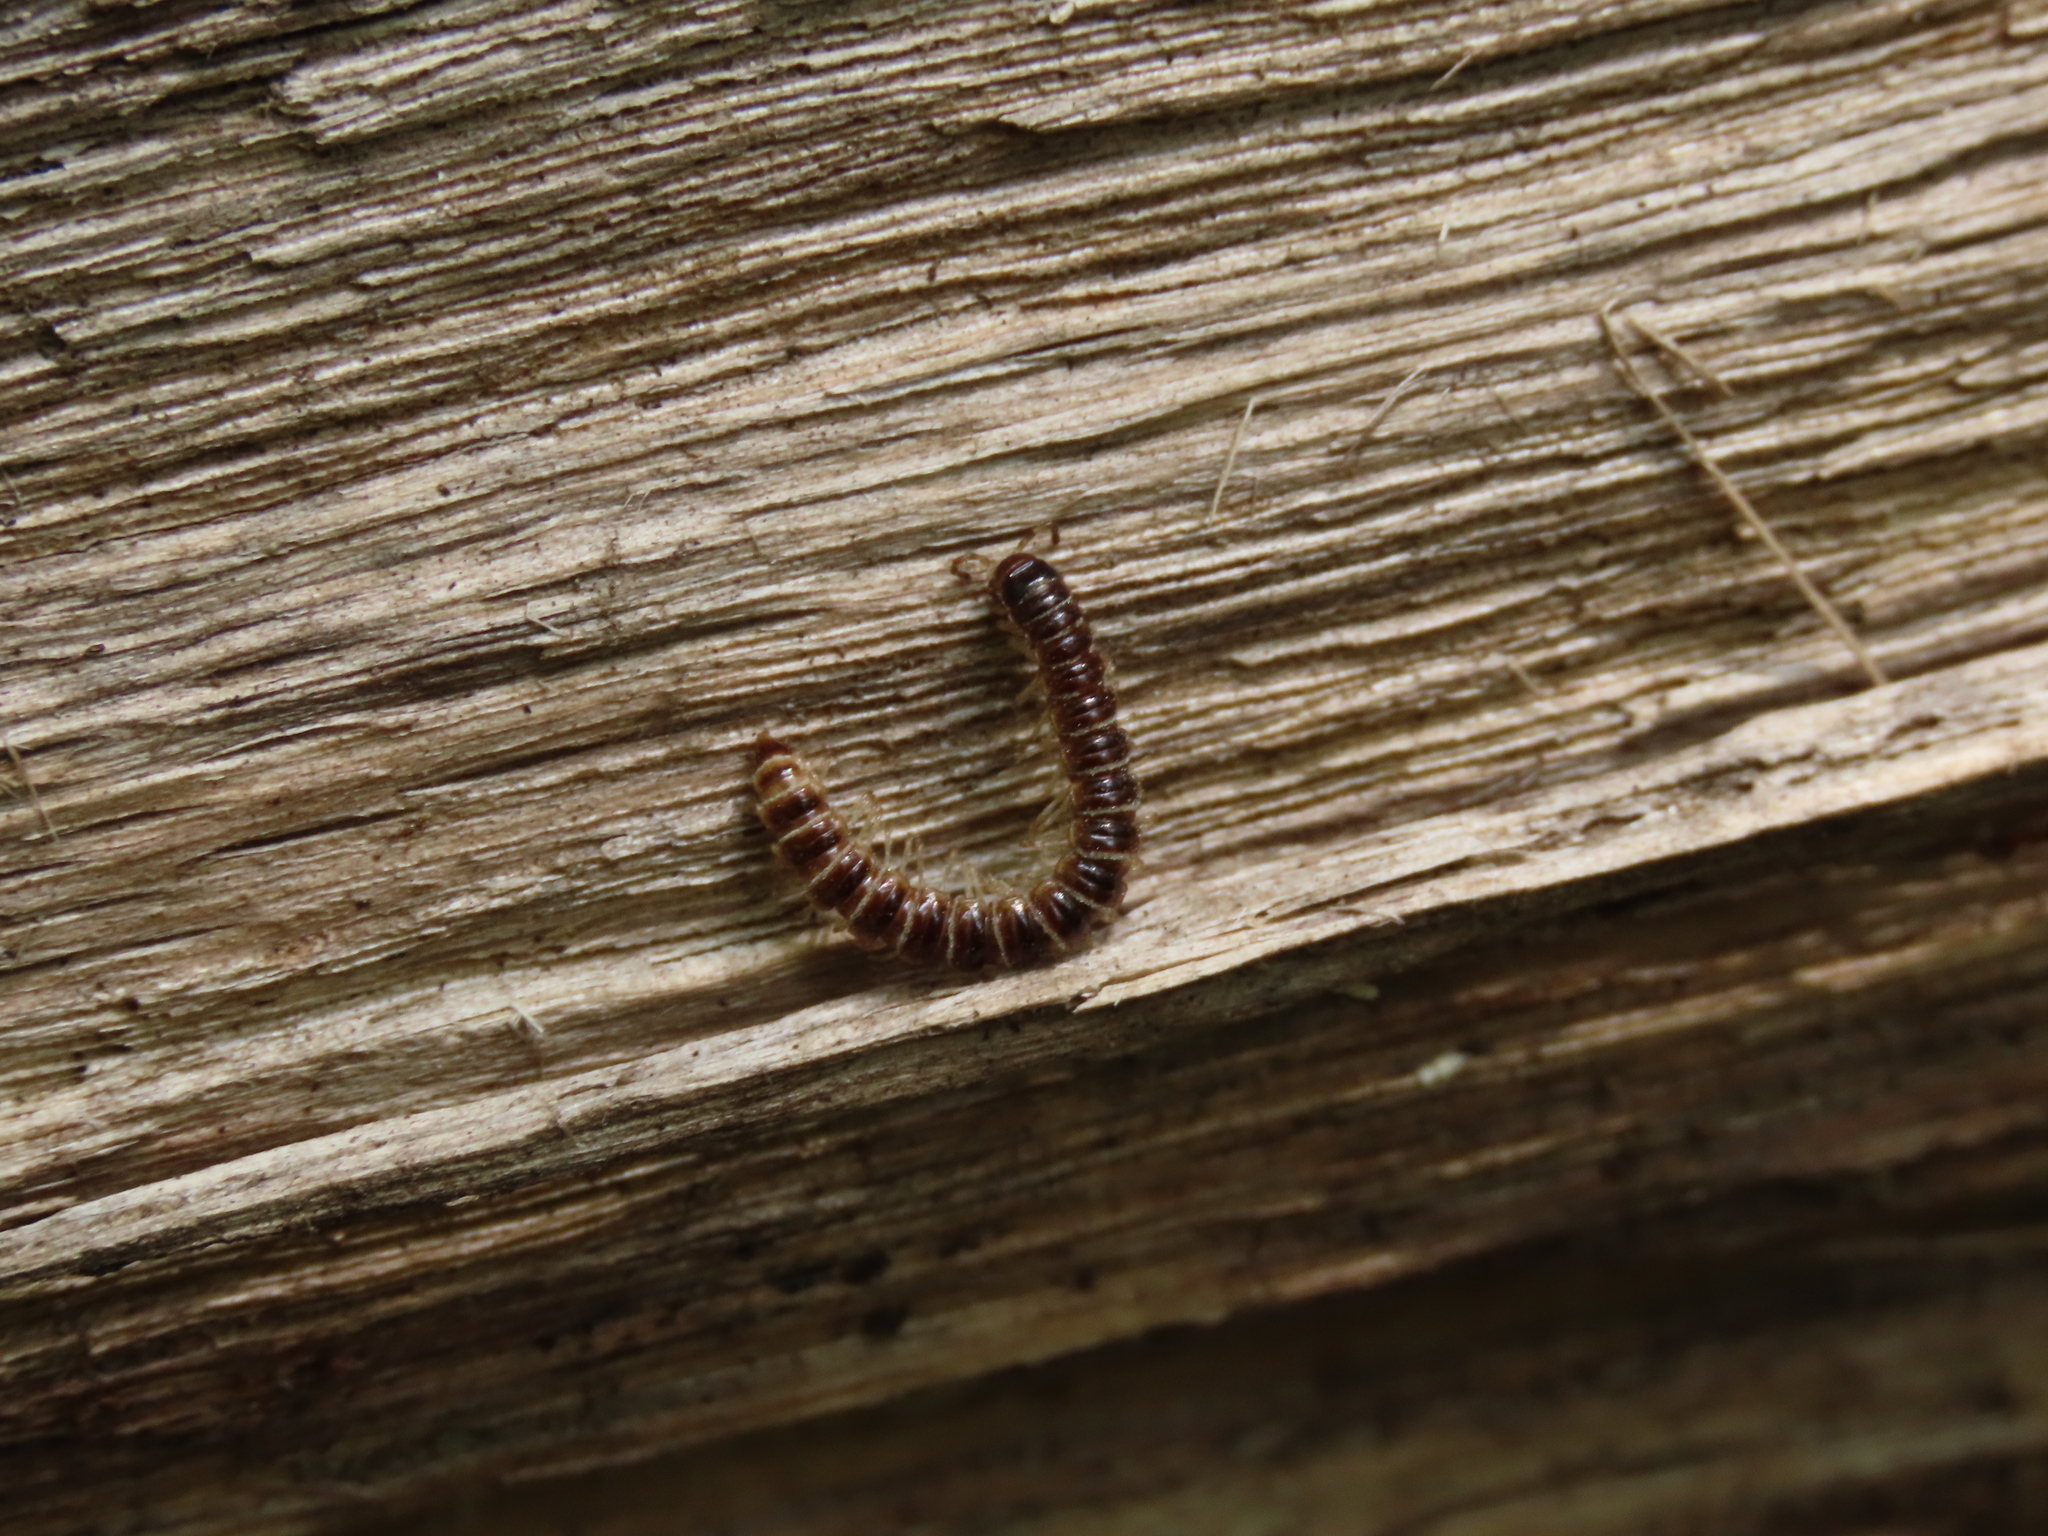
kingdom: Animalia
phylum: Arthropoda
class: Diplopoda
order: Polydesmida
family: Paradoxosomatidae
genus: Oxidus
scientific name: Oxidus gracilis
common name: Greenhouse millipede
